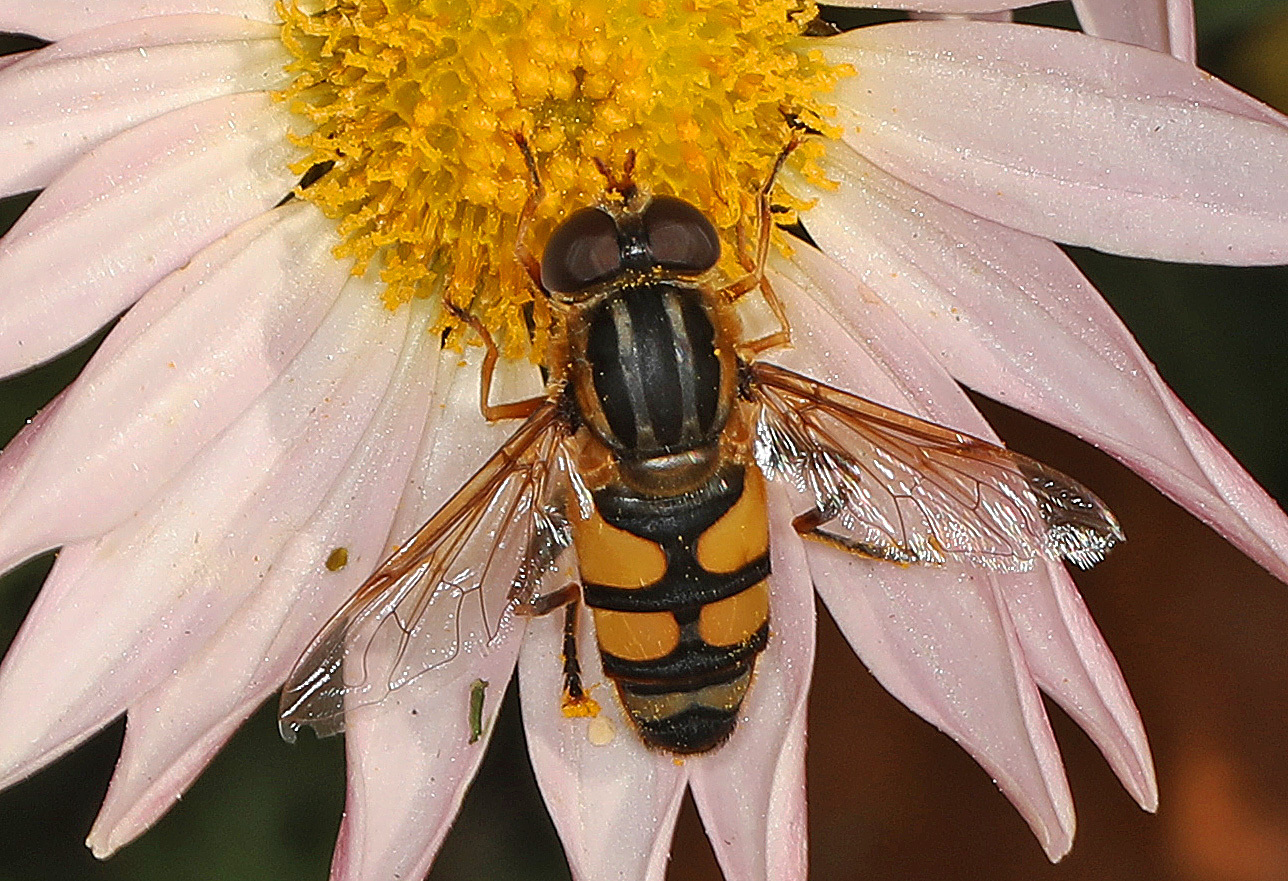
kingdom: Animalia
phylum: Arthropoda
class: Insecta
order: Diptera
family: Syrphidae
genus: Helophilus
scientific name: Helophilus fasciatus
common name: Narrow-headed marsh fly
